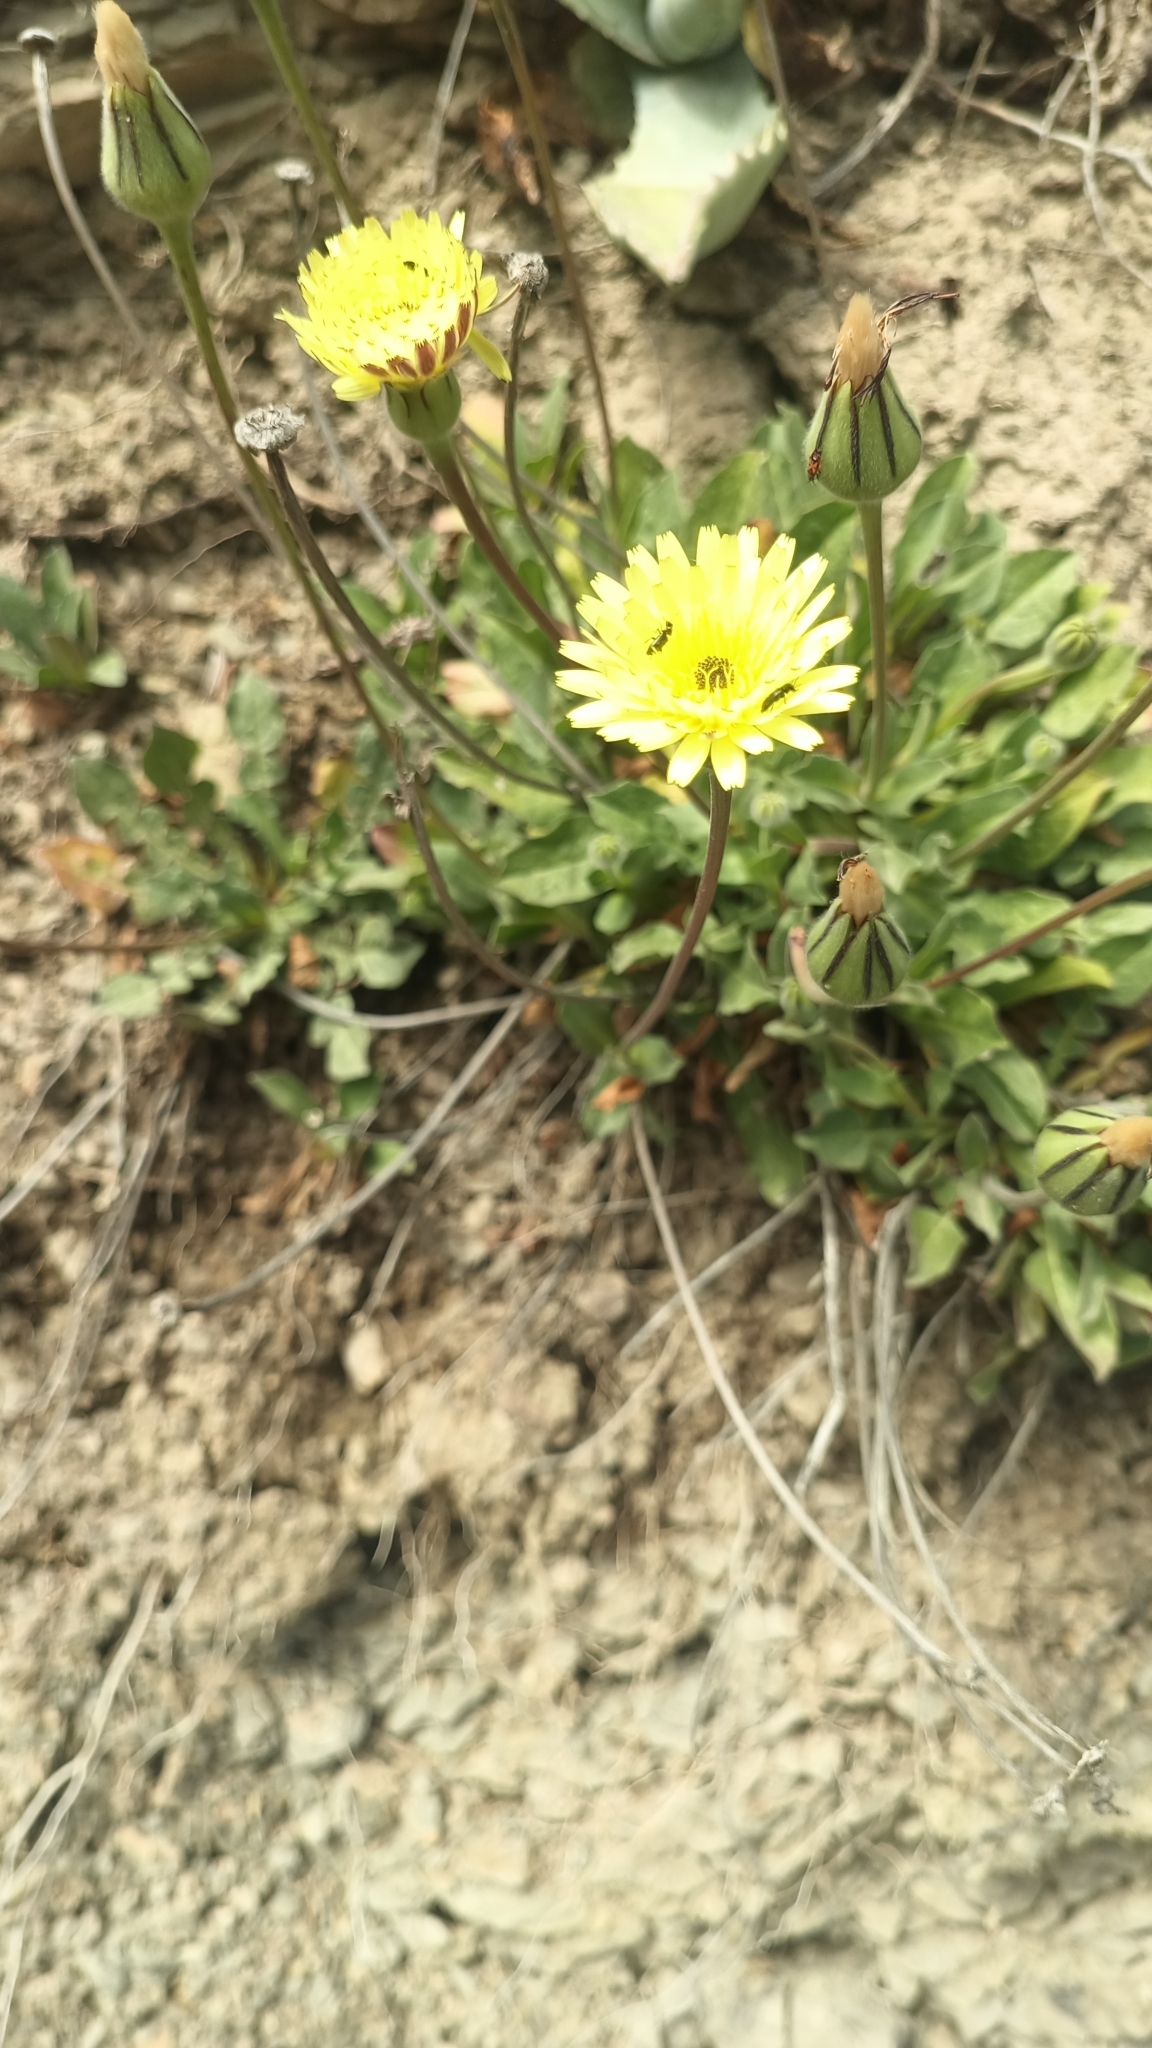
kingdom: Plantae
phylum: Tracheophyta
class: Magnoliopsida
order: Asterales
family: Asteraceae
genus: Urospermum
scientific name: Urospermum dalechampii
